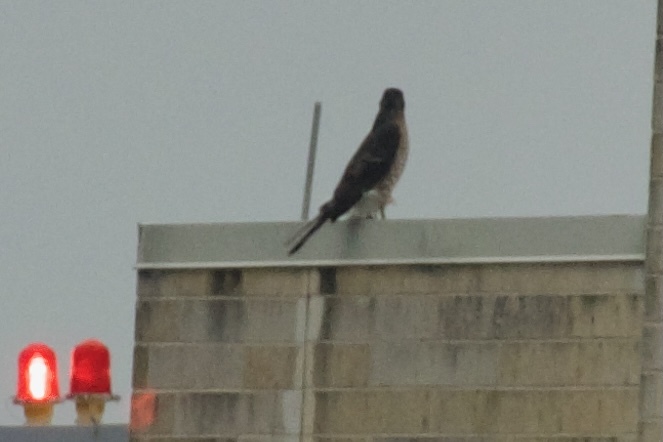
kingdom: Animalia
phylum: Chordata
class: Aves
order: Accipitriformes
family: Accipitridae
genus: Accipiter
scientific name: Accipiter cooperii
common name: Cooper's hawk
